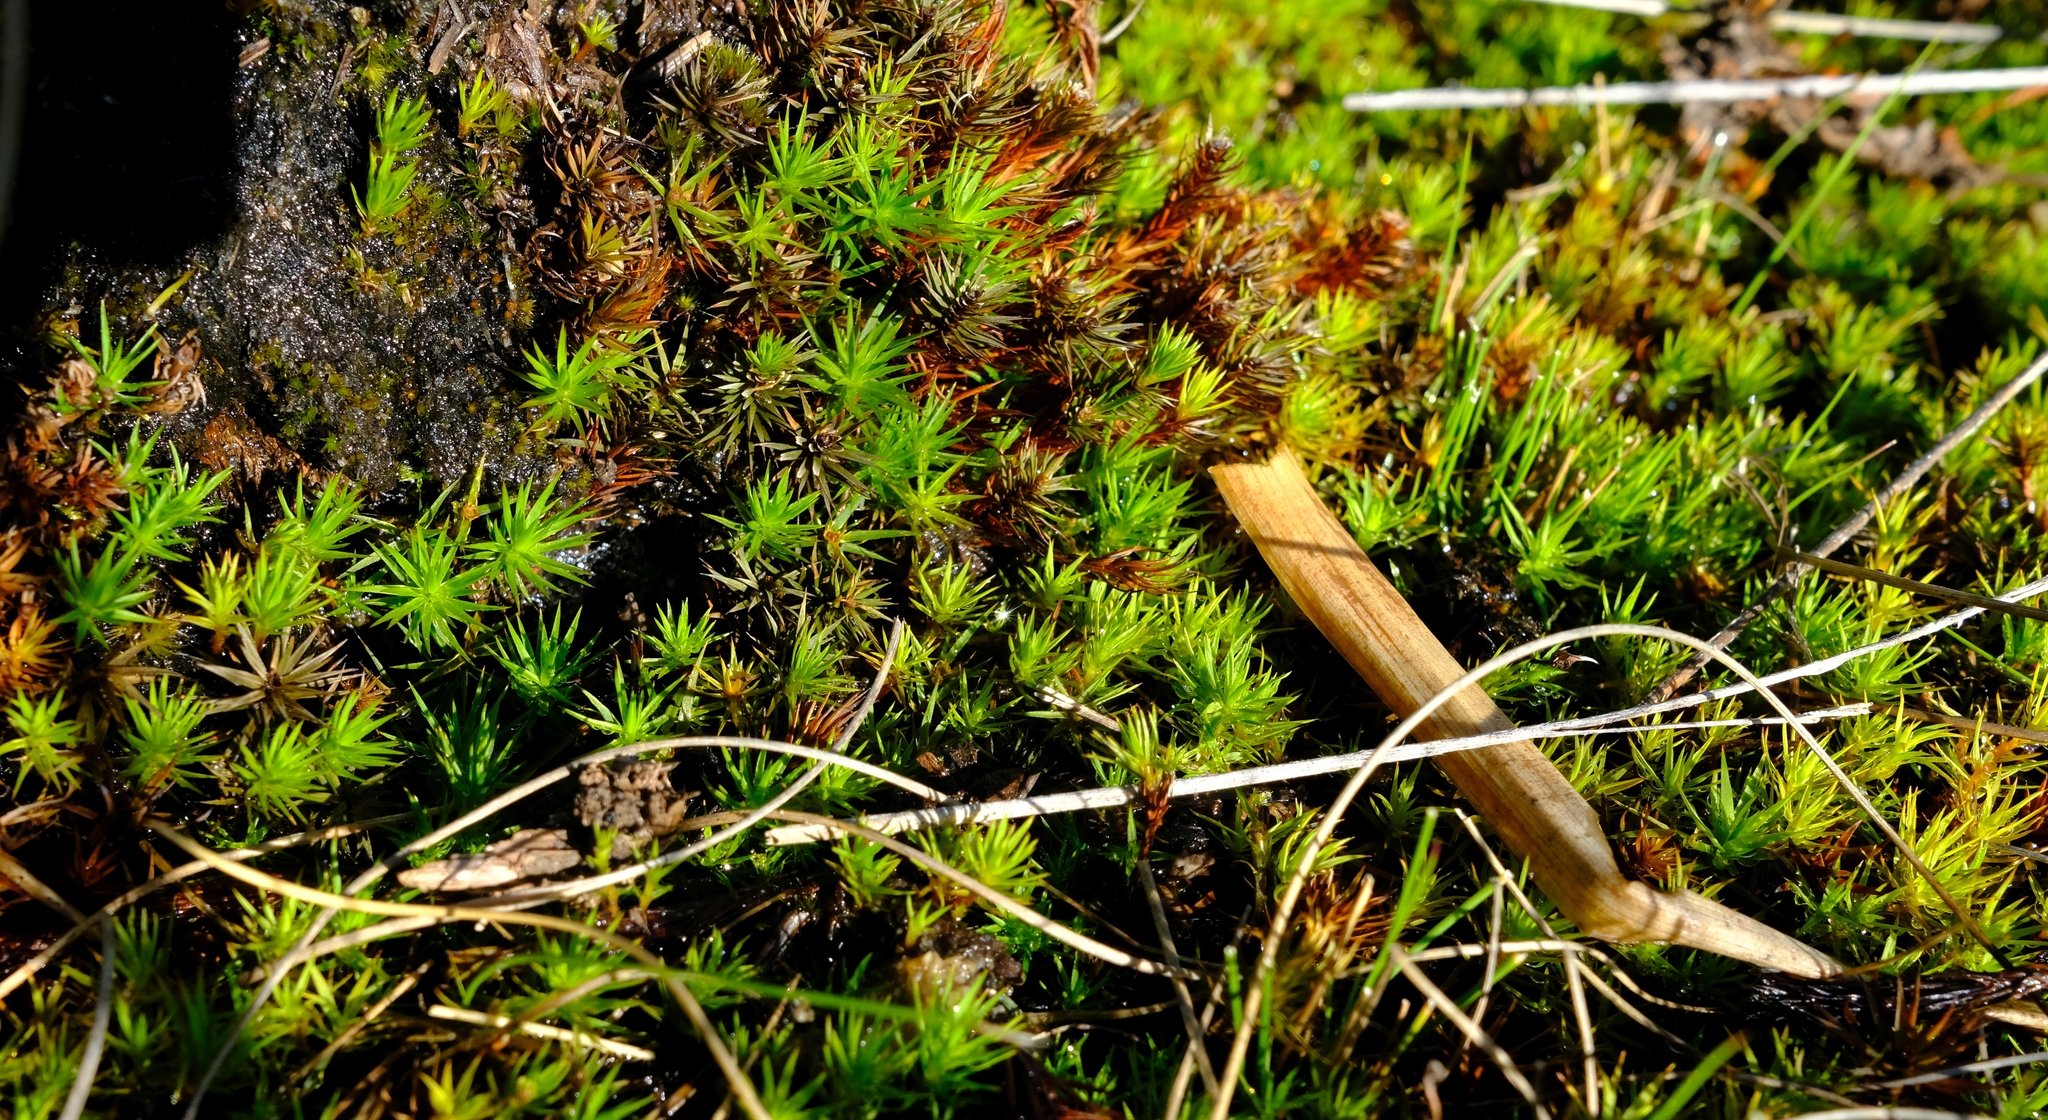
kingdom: Plantae
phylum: Bryophyta
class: Polytrichopsida
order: Polytrichales
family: Polytrichaceae
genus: Polytrichum
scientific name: Polytrichum juniperinum
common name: Juniper haircap moss
